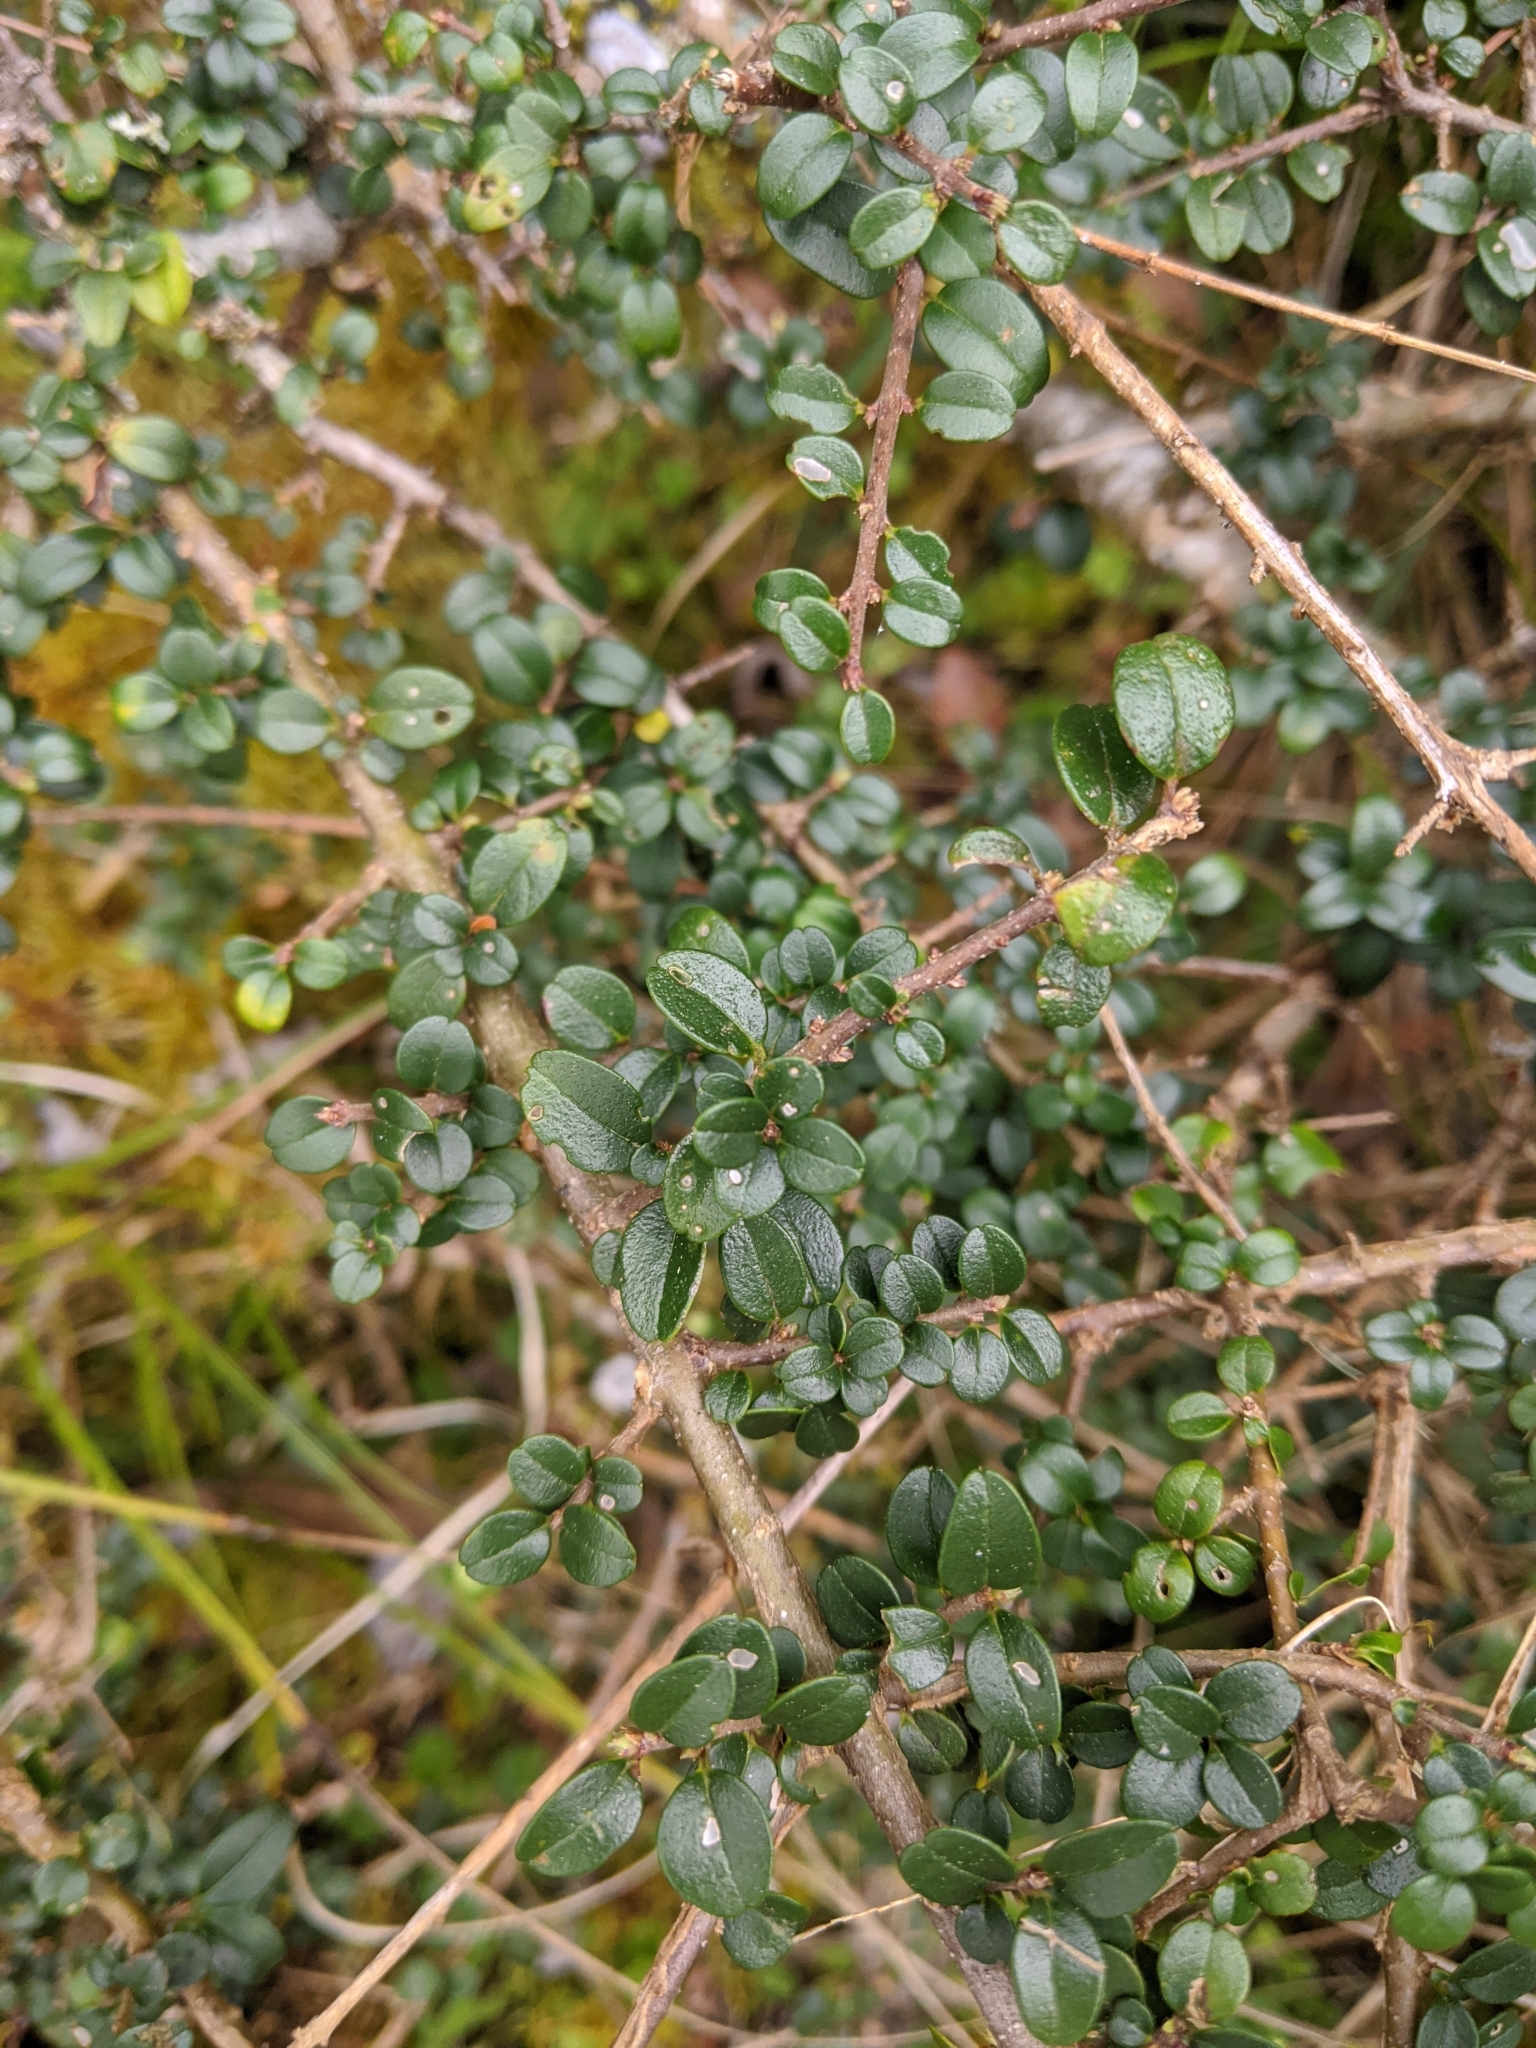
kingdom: Plantae
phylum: Tracheophyta
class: Magnoliopsida
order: Lamiales
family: Oleaceae
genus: Ligustrum
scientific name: Ligustrum morrisonense
